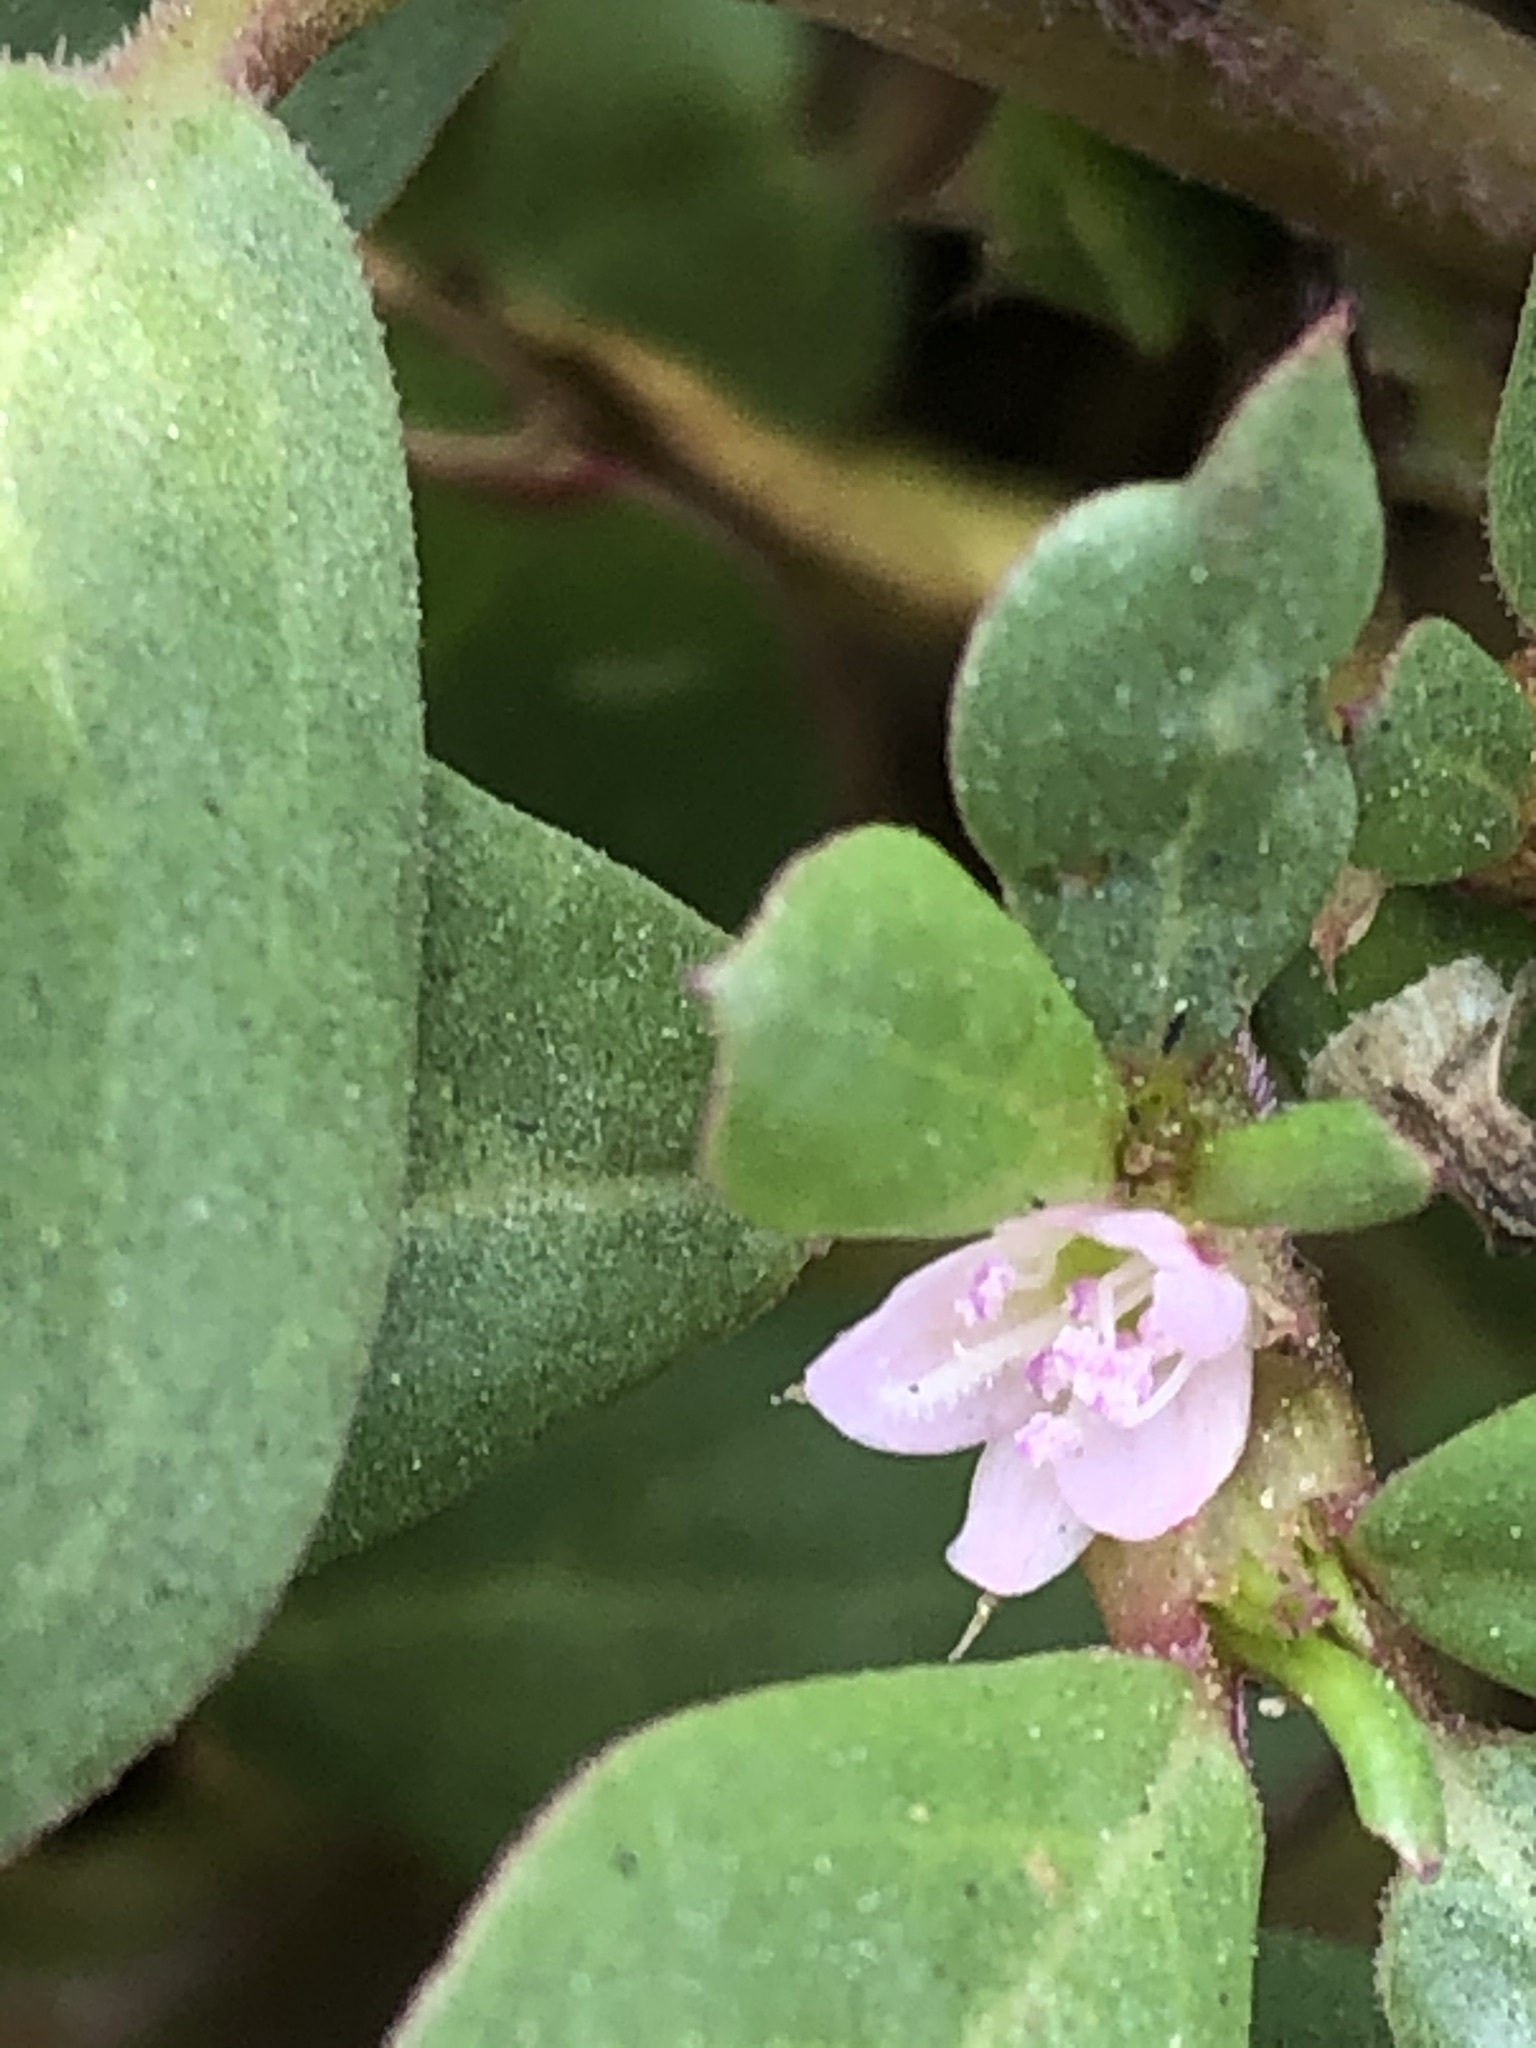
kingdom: Plantae
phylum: Tracheophyta
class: Magnoliopsida
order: Caryophyllales
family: Aizoaceae
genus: Trianthema
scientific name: Trianthema portulacastrum
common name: Desert horsepurslane
